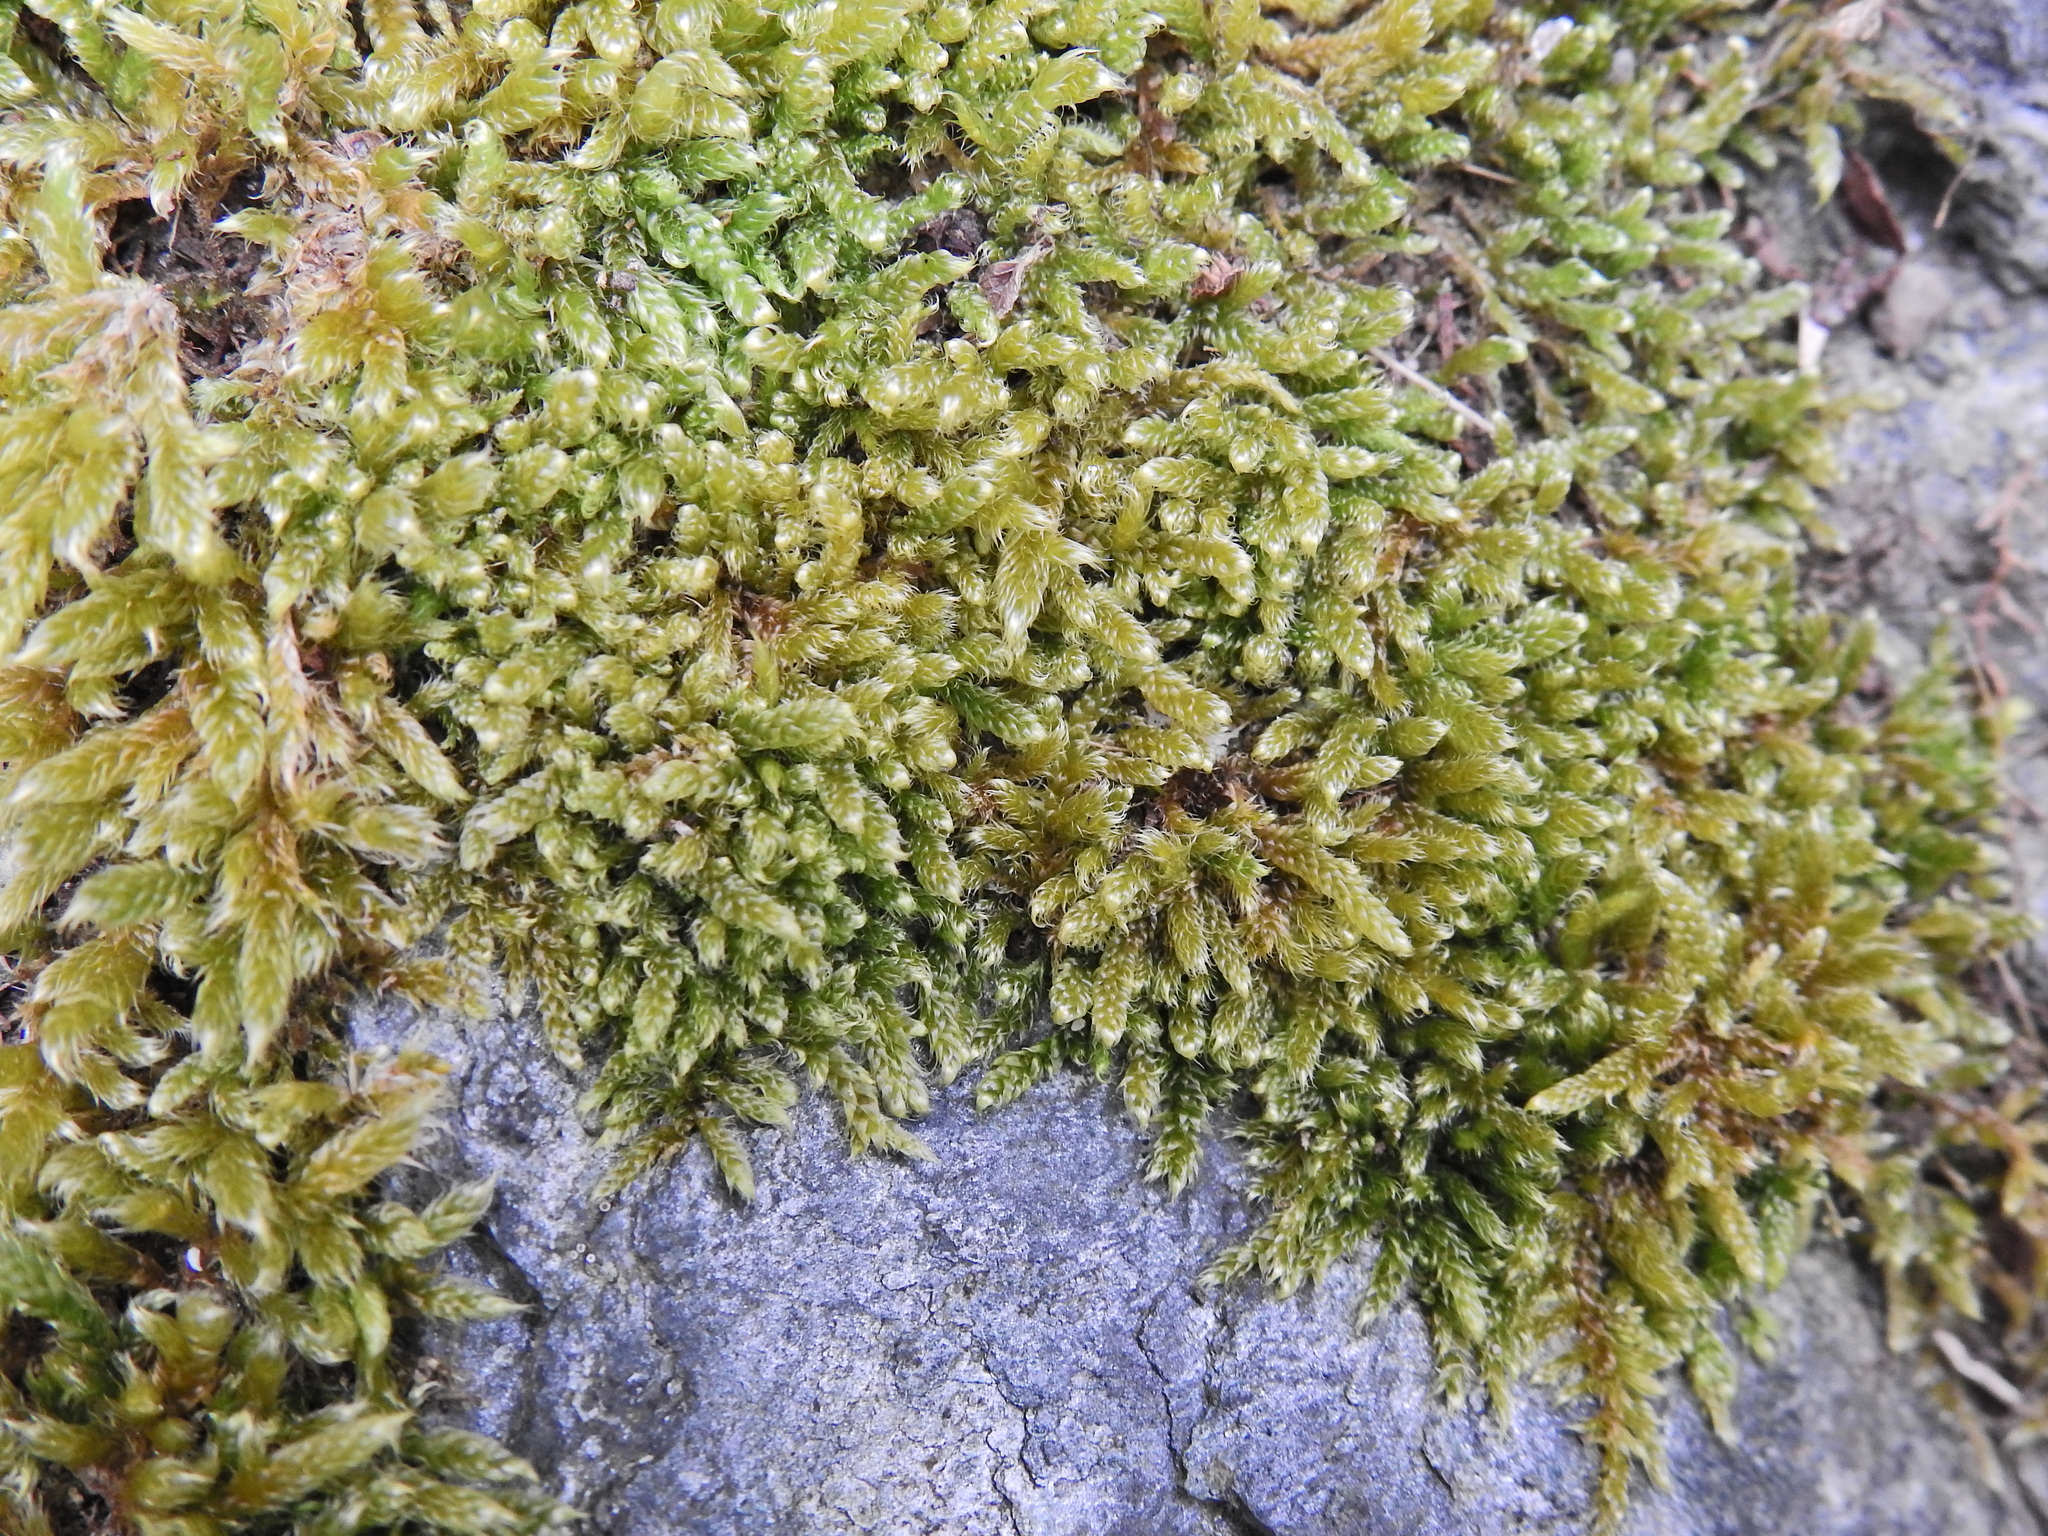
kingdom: Plantae
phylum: Bryophyta
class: Bryopsida
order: Hypnales
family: Hypnaceae
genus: Hypnum
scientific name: Hypnum cupressiforme
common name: Cypress-leaved plait-moss
